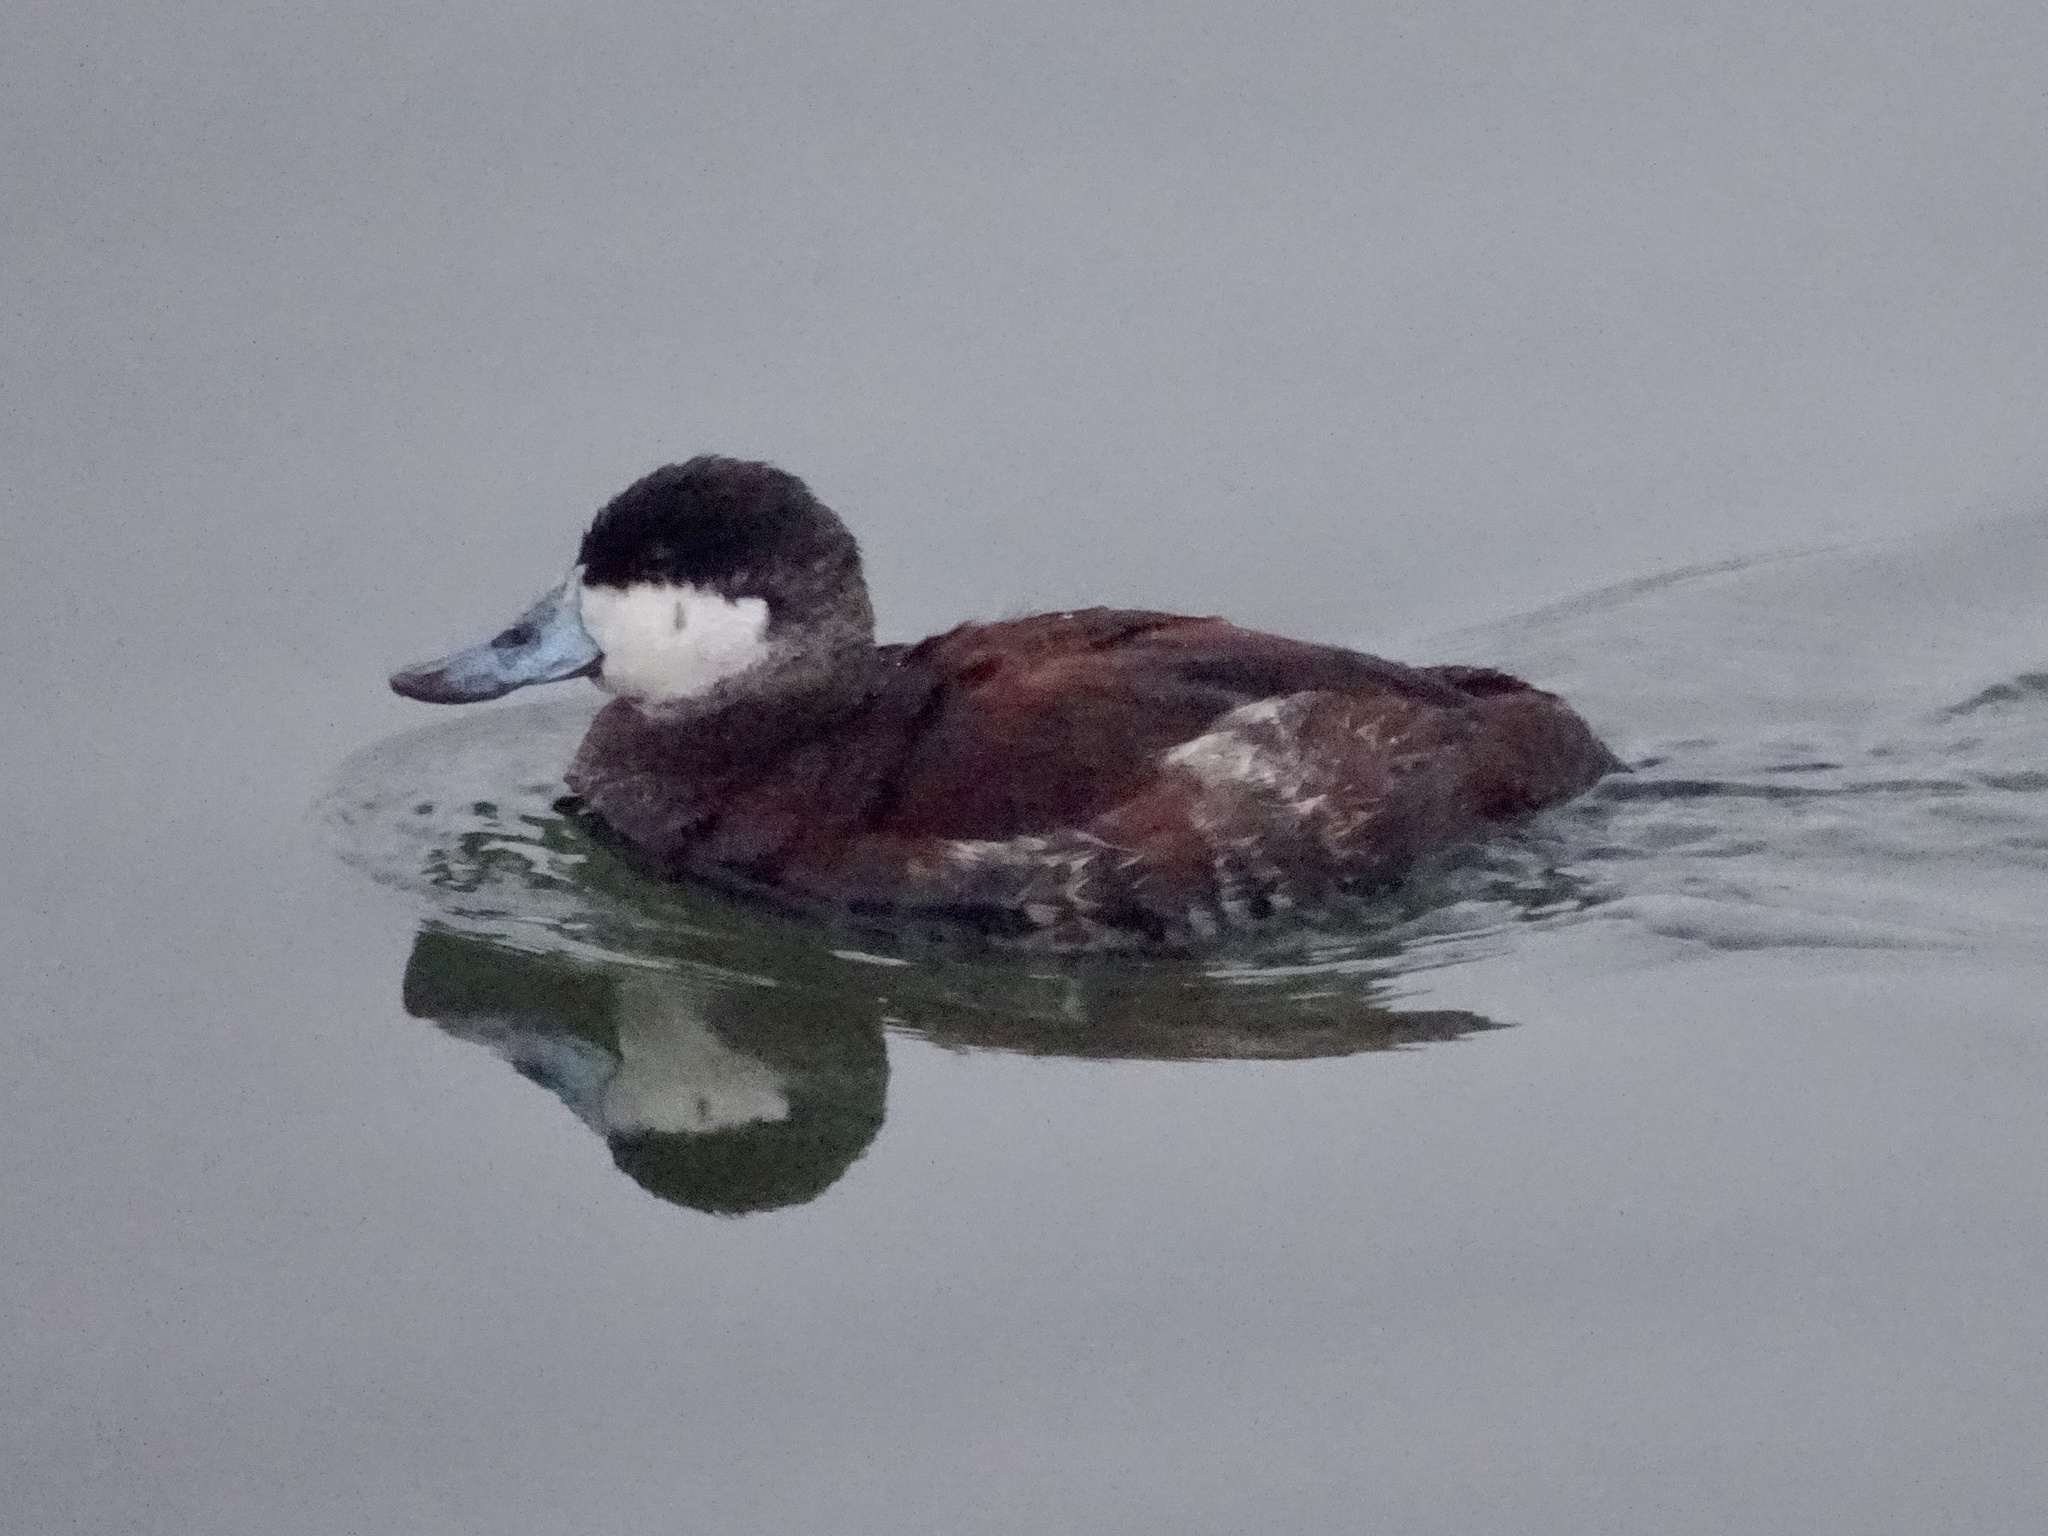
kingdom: Animalia
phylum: Chordata
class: Aves
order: Anseriformes
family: Anatidae
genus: Oxyura
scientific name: Oxyura jamaicensis
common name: Ruddy duck
